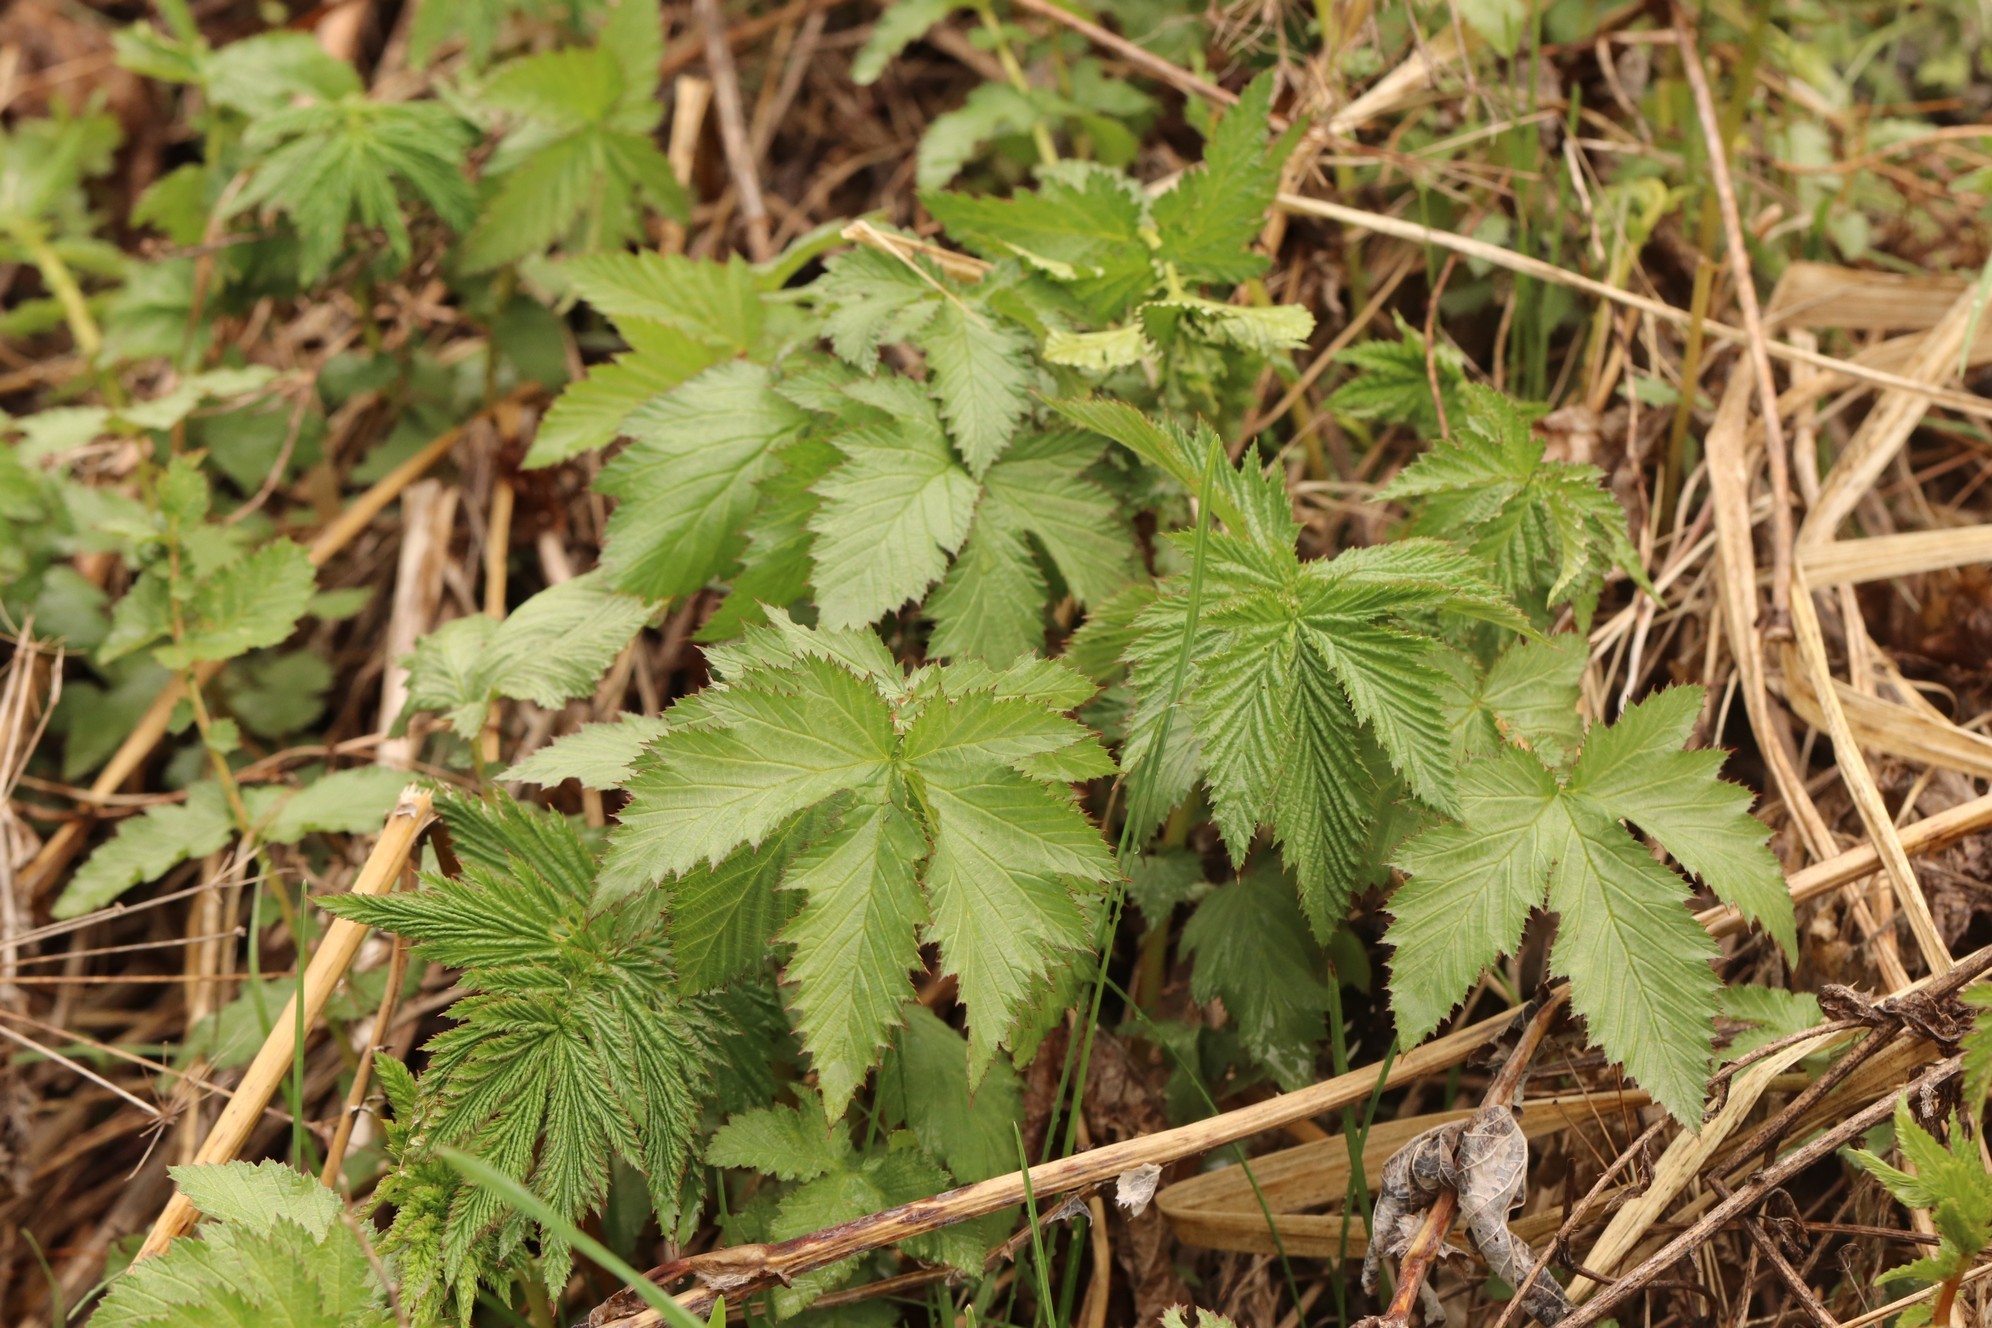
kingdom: Plantae
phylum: Tracheophyta
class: Magnoliopsida
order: Rosales
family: Rosaceae
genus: Filipendula
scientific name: Filipendula ulmaria
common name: Meadowsweet
